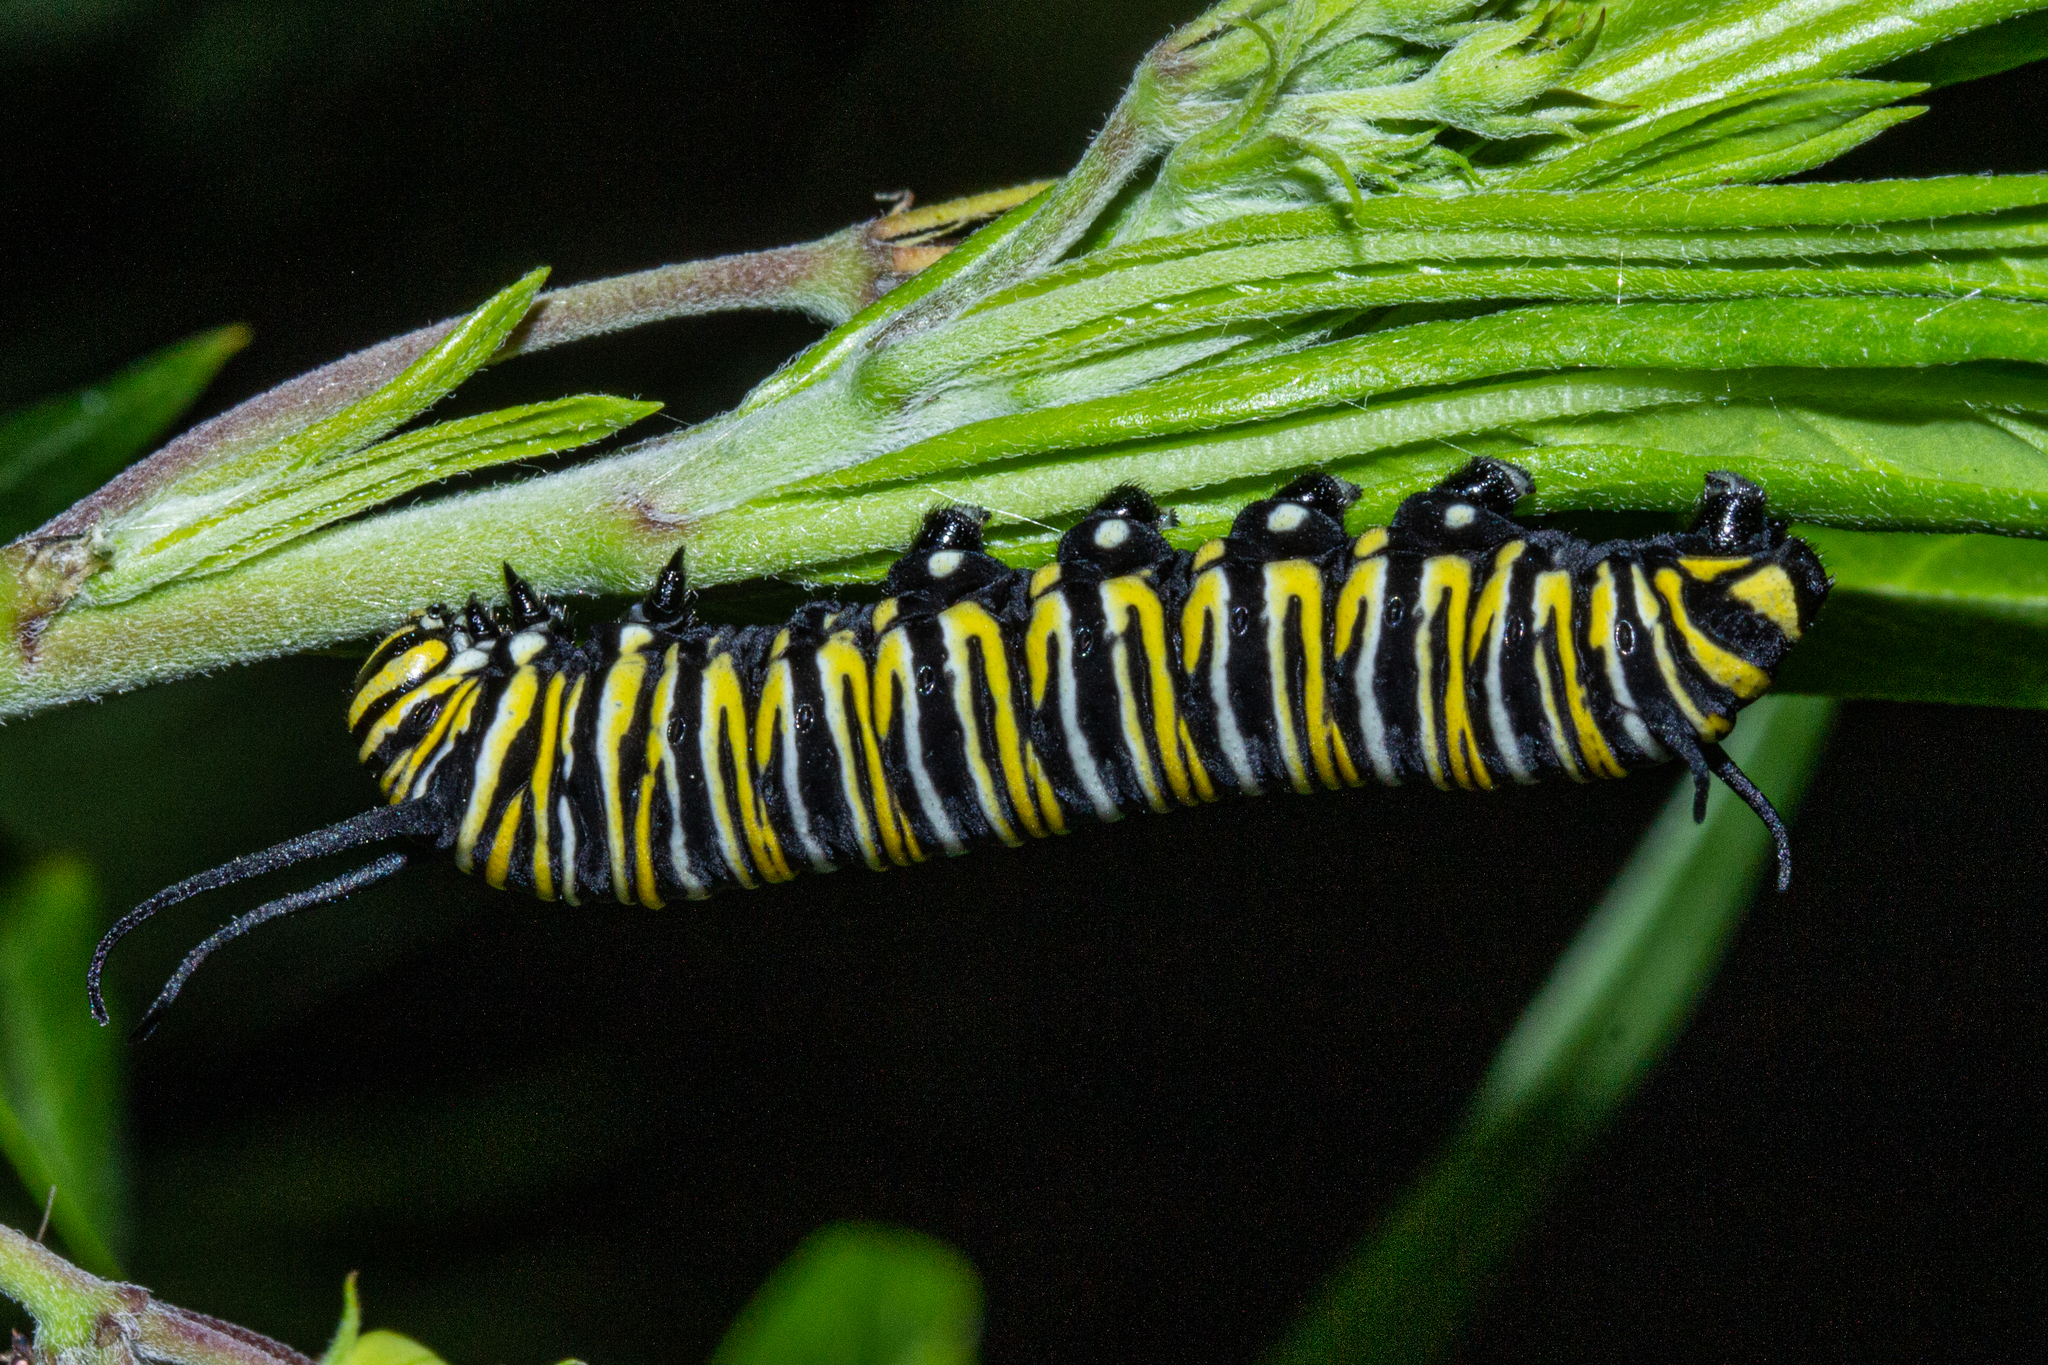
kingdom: Animalia
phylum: Arthropoda
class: Insecta
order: Lepidoptera
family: Nymphalidae
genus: Danaus
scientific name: Danaus plexippus
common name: Monarch
